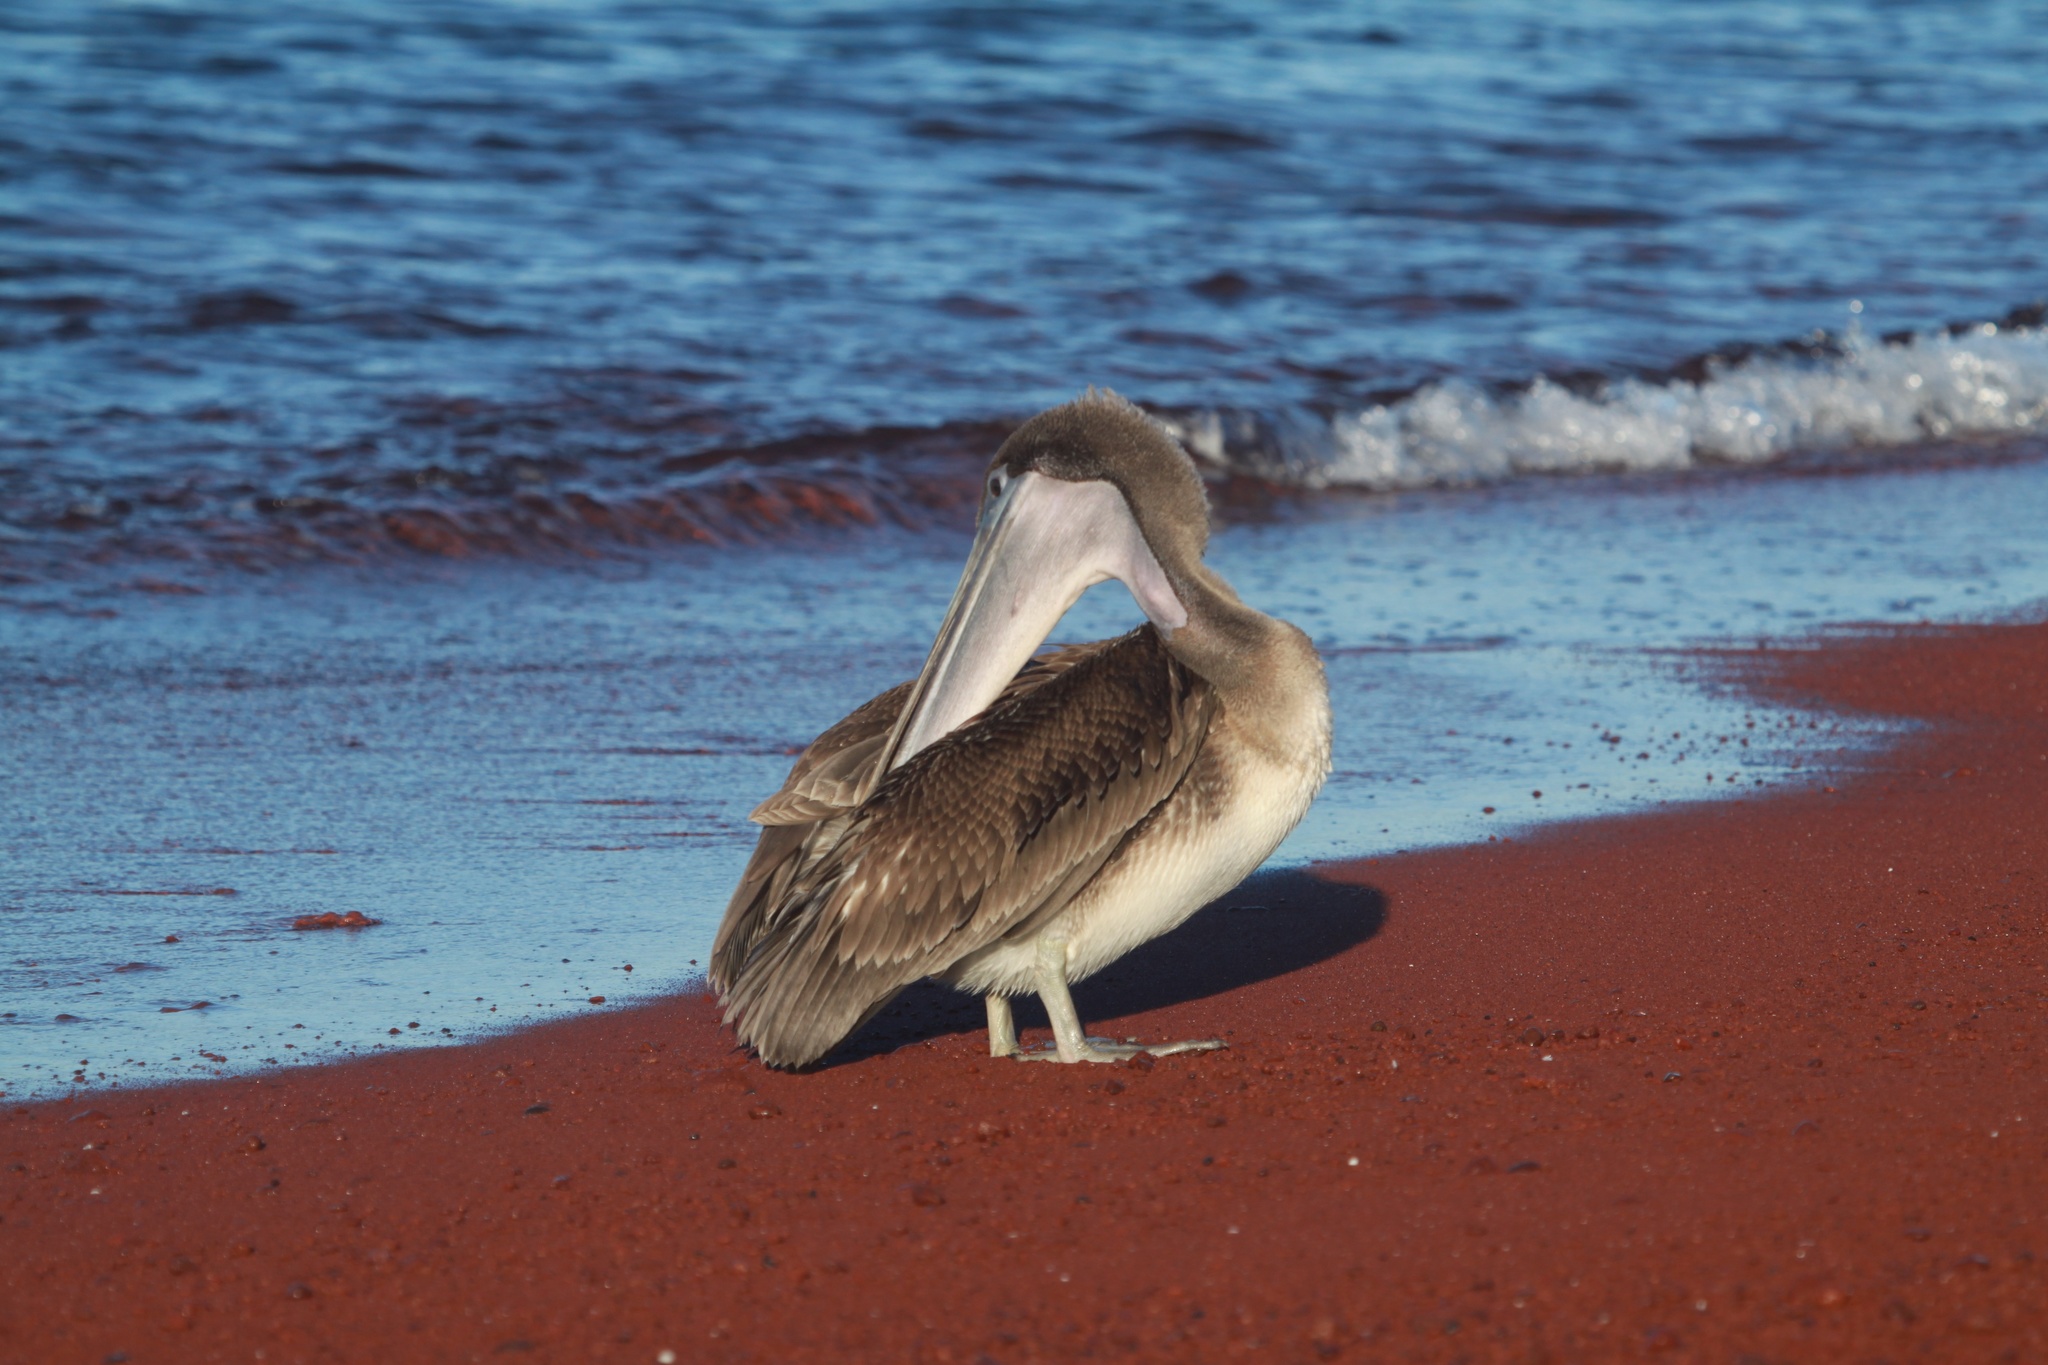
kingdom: Animalia
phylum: Chordata
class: Aves
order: Pelecaniformes
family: Pelecanidae
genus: Pelecanus
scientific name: Pelecanus occidentalis
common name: Brown pelican
